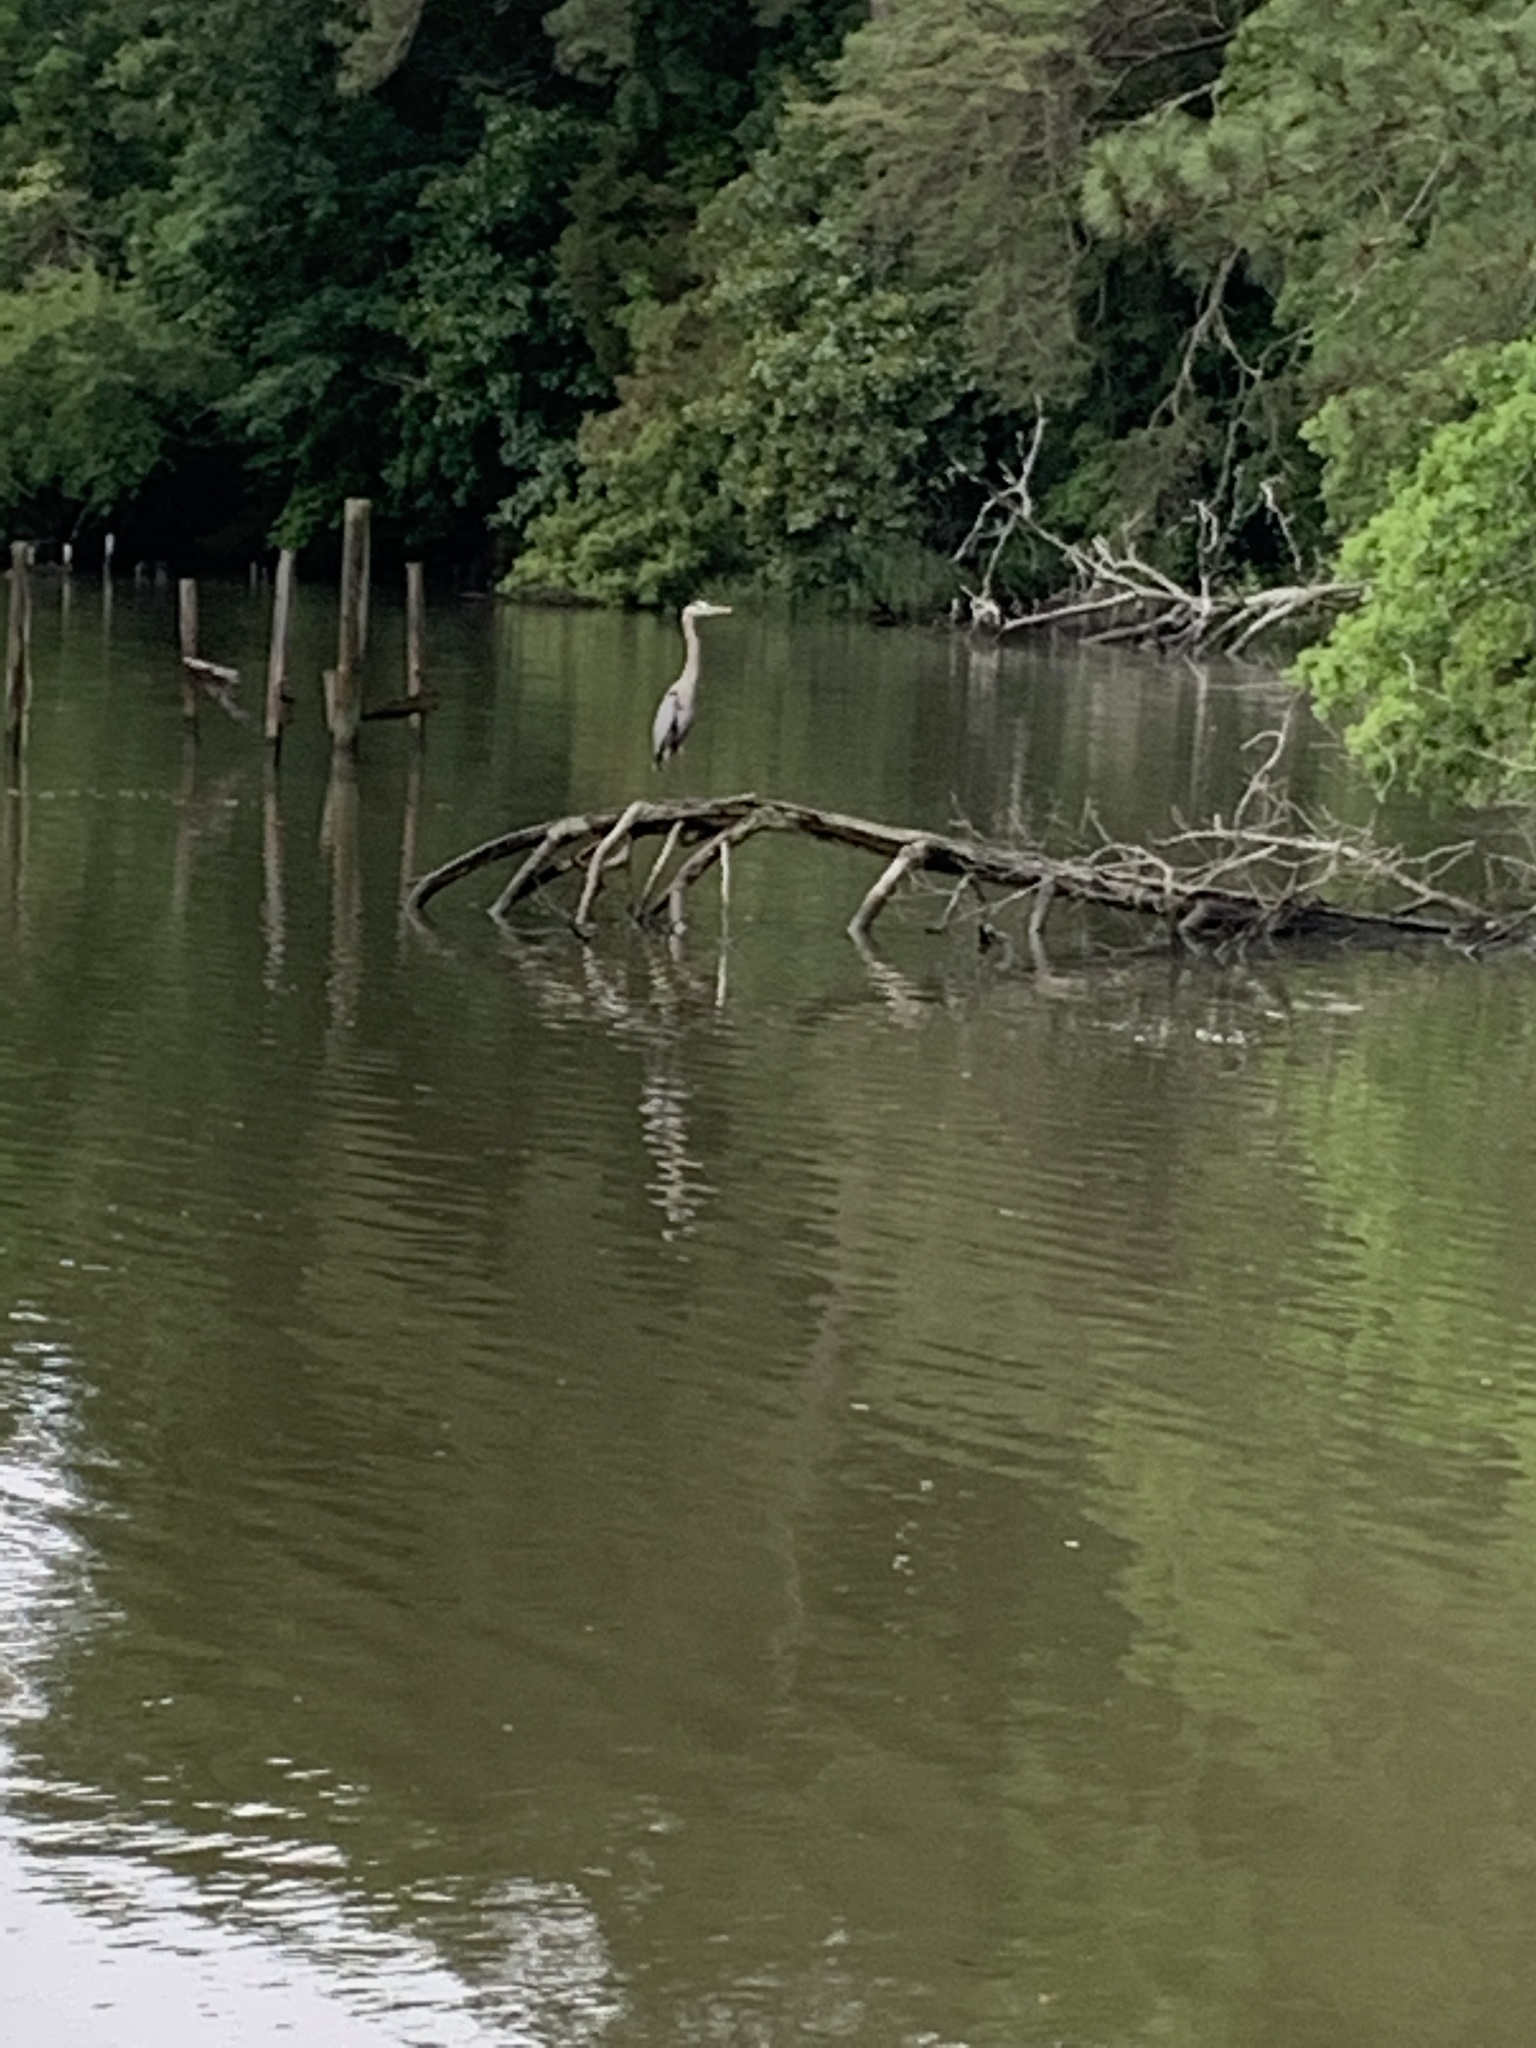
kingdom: Animalia
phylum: Chordata
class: Aves
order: Pelecaniformes
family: Ardeidae
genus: Ardea
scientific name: Ardea herodias
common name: Great blue heron
